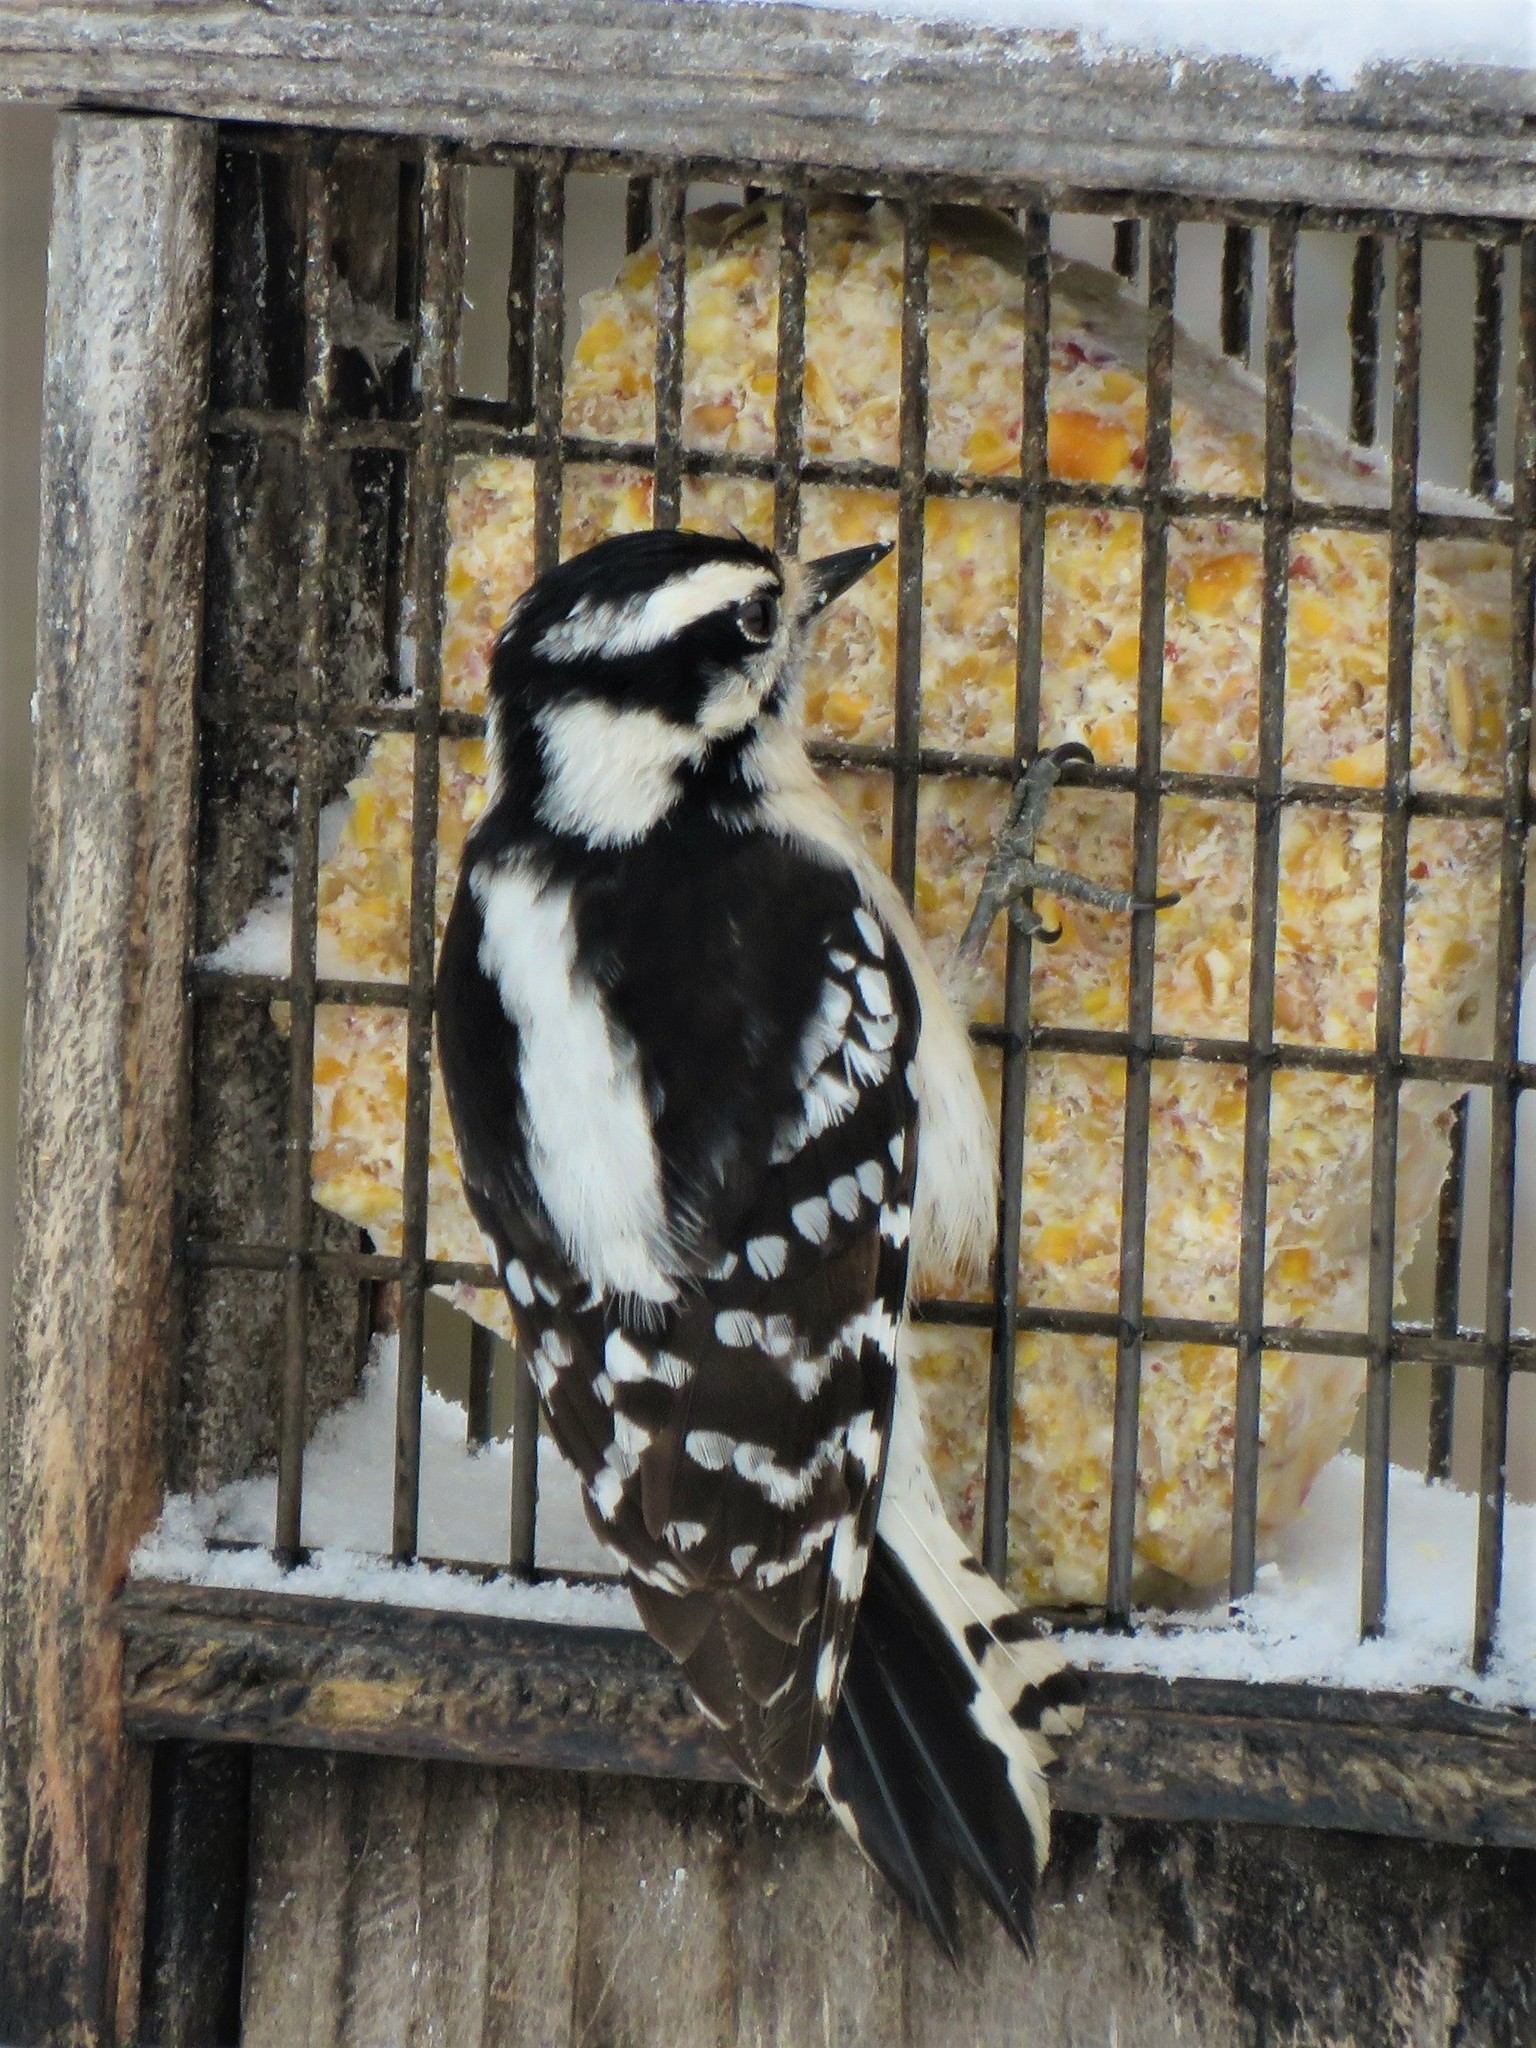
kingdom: Animalia
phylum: Chordata
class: Aves
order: Piciformes
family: Picidae
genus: Dryobates
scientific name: Dryobates pubescens
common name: Downy woodpecker
